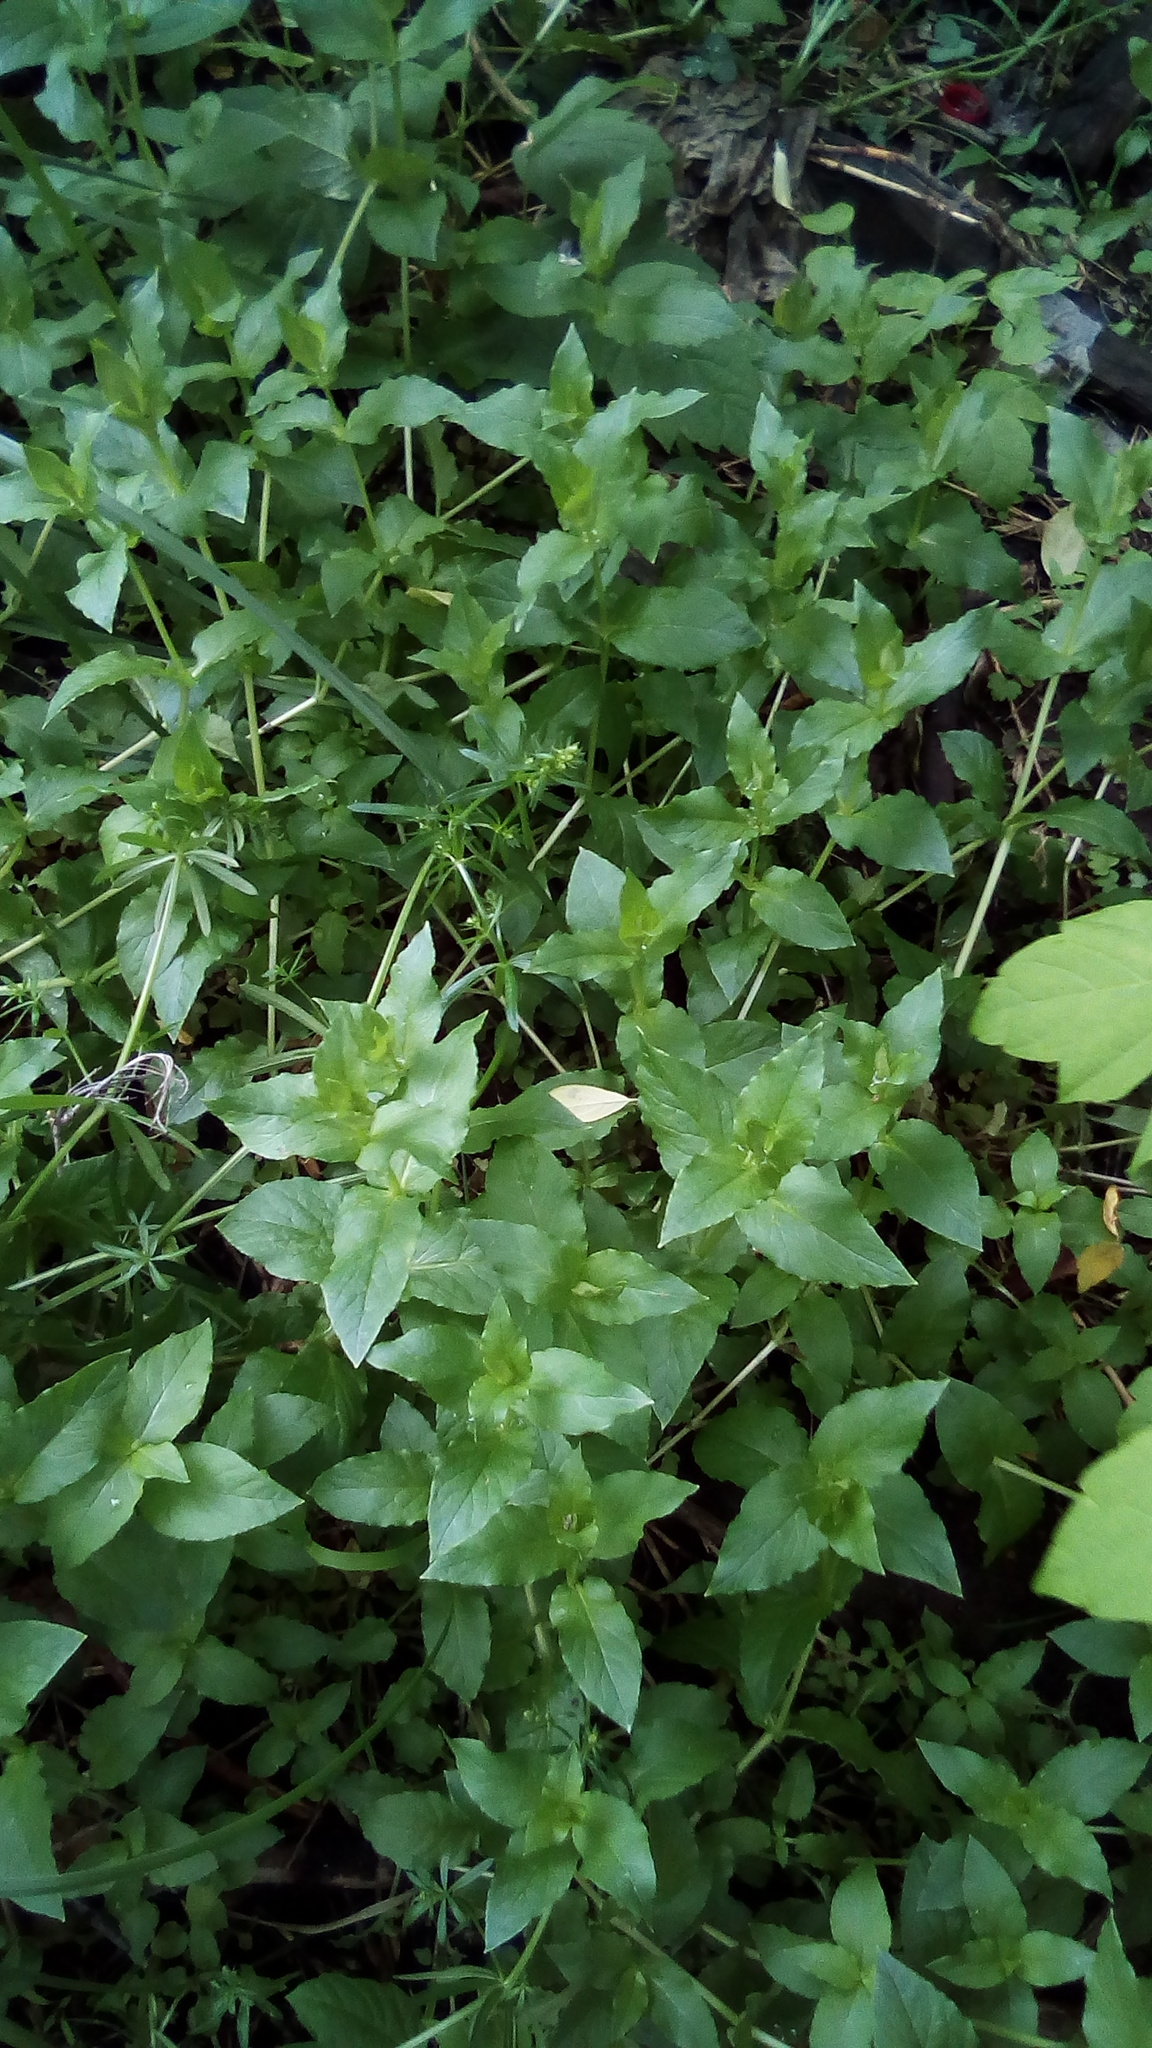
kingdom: Plantae
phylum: Tracheophyta
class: Magnoliopsida
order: Caryophyllales
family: Caryophyllaceae
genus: Stellaria
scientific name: Stellaria aquatica
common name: Water chickweed
